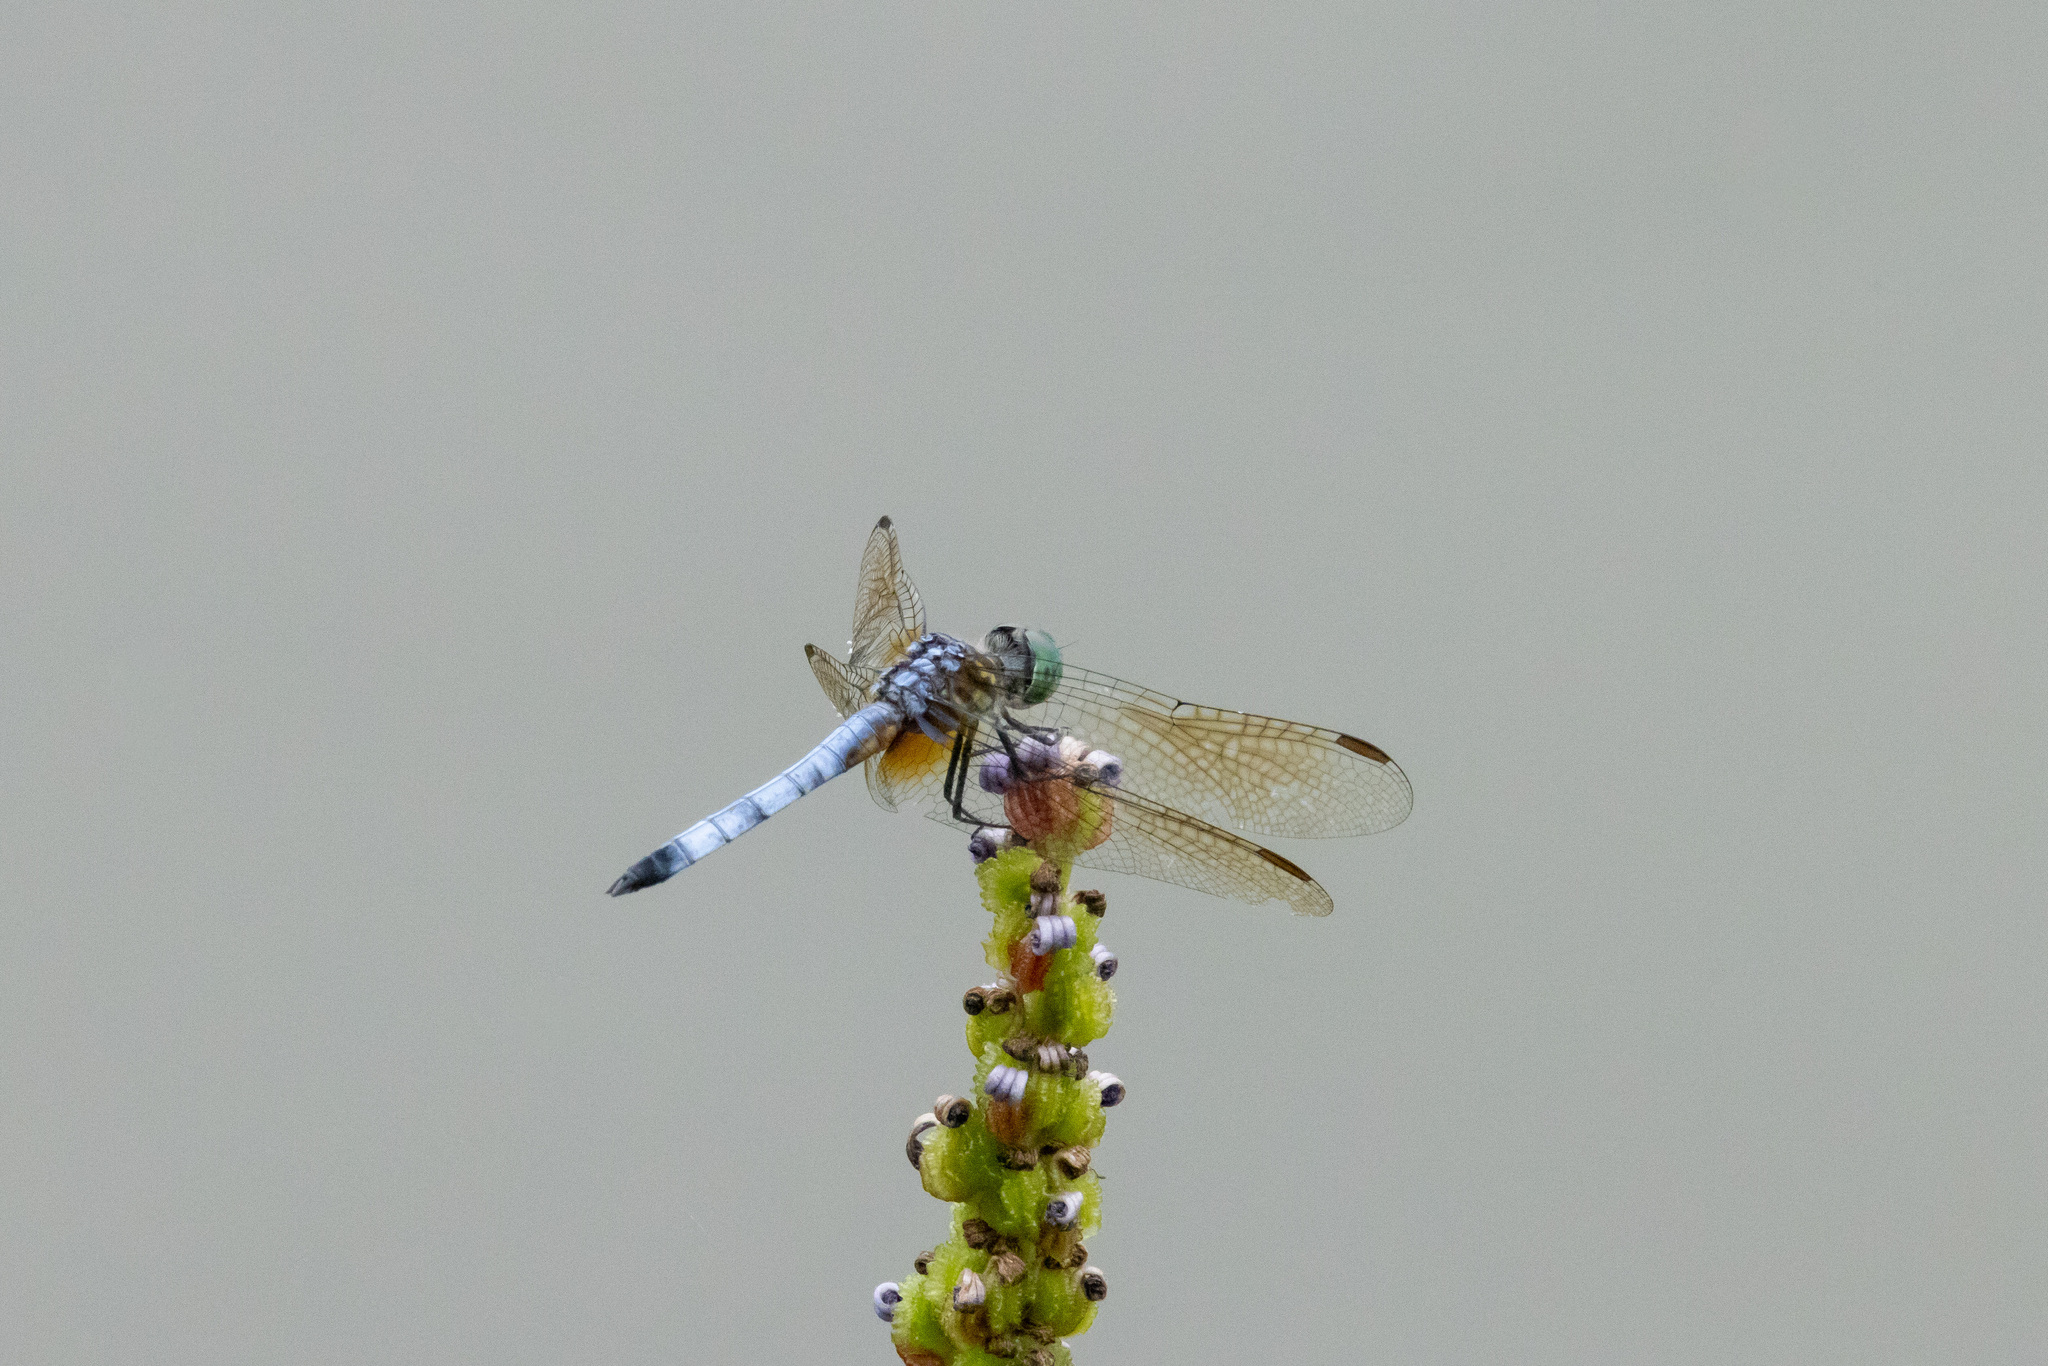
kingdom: Animalia
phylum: Arthropoda
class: Insecta
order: Odonata
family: Libellulidae
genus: Pachydiplax
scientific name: Pachydiplax longipennis
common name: Blue dasher
